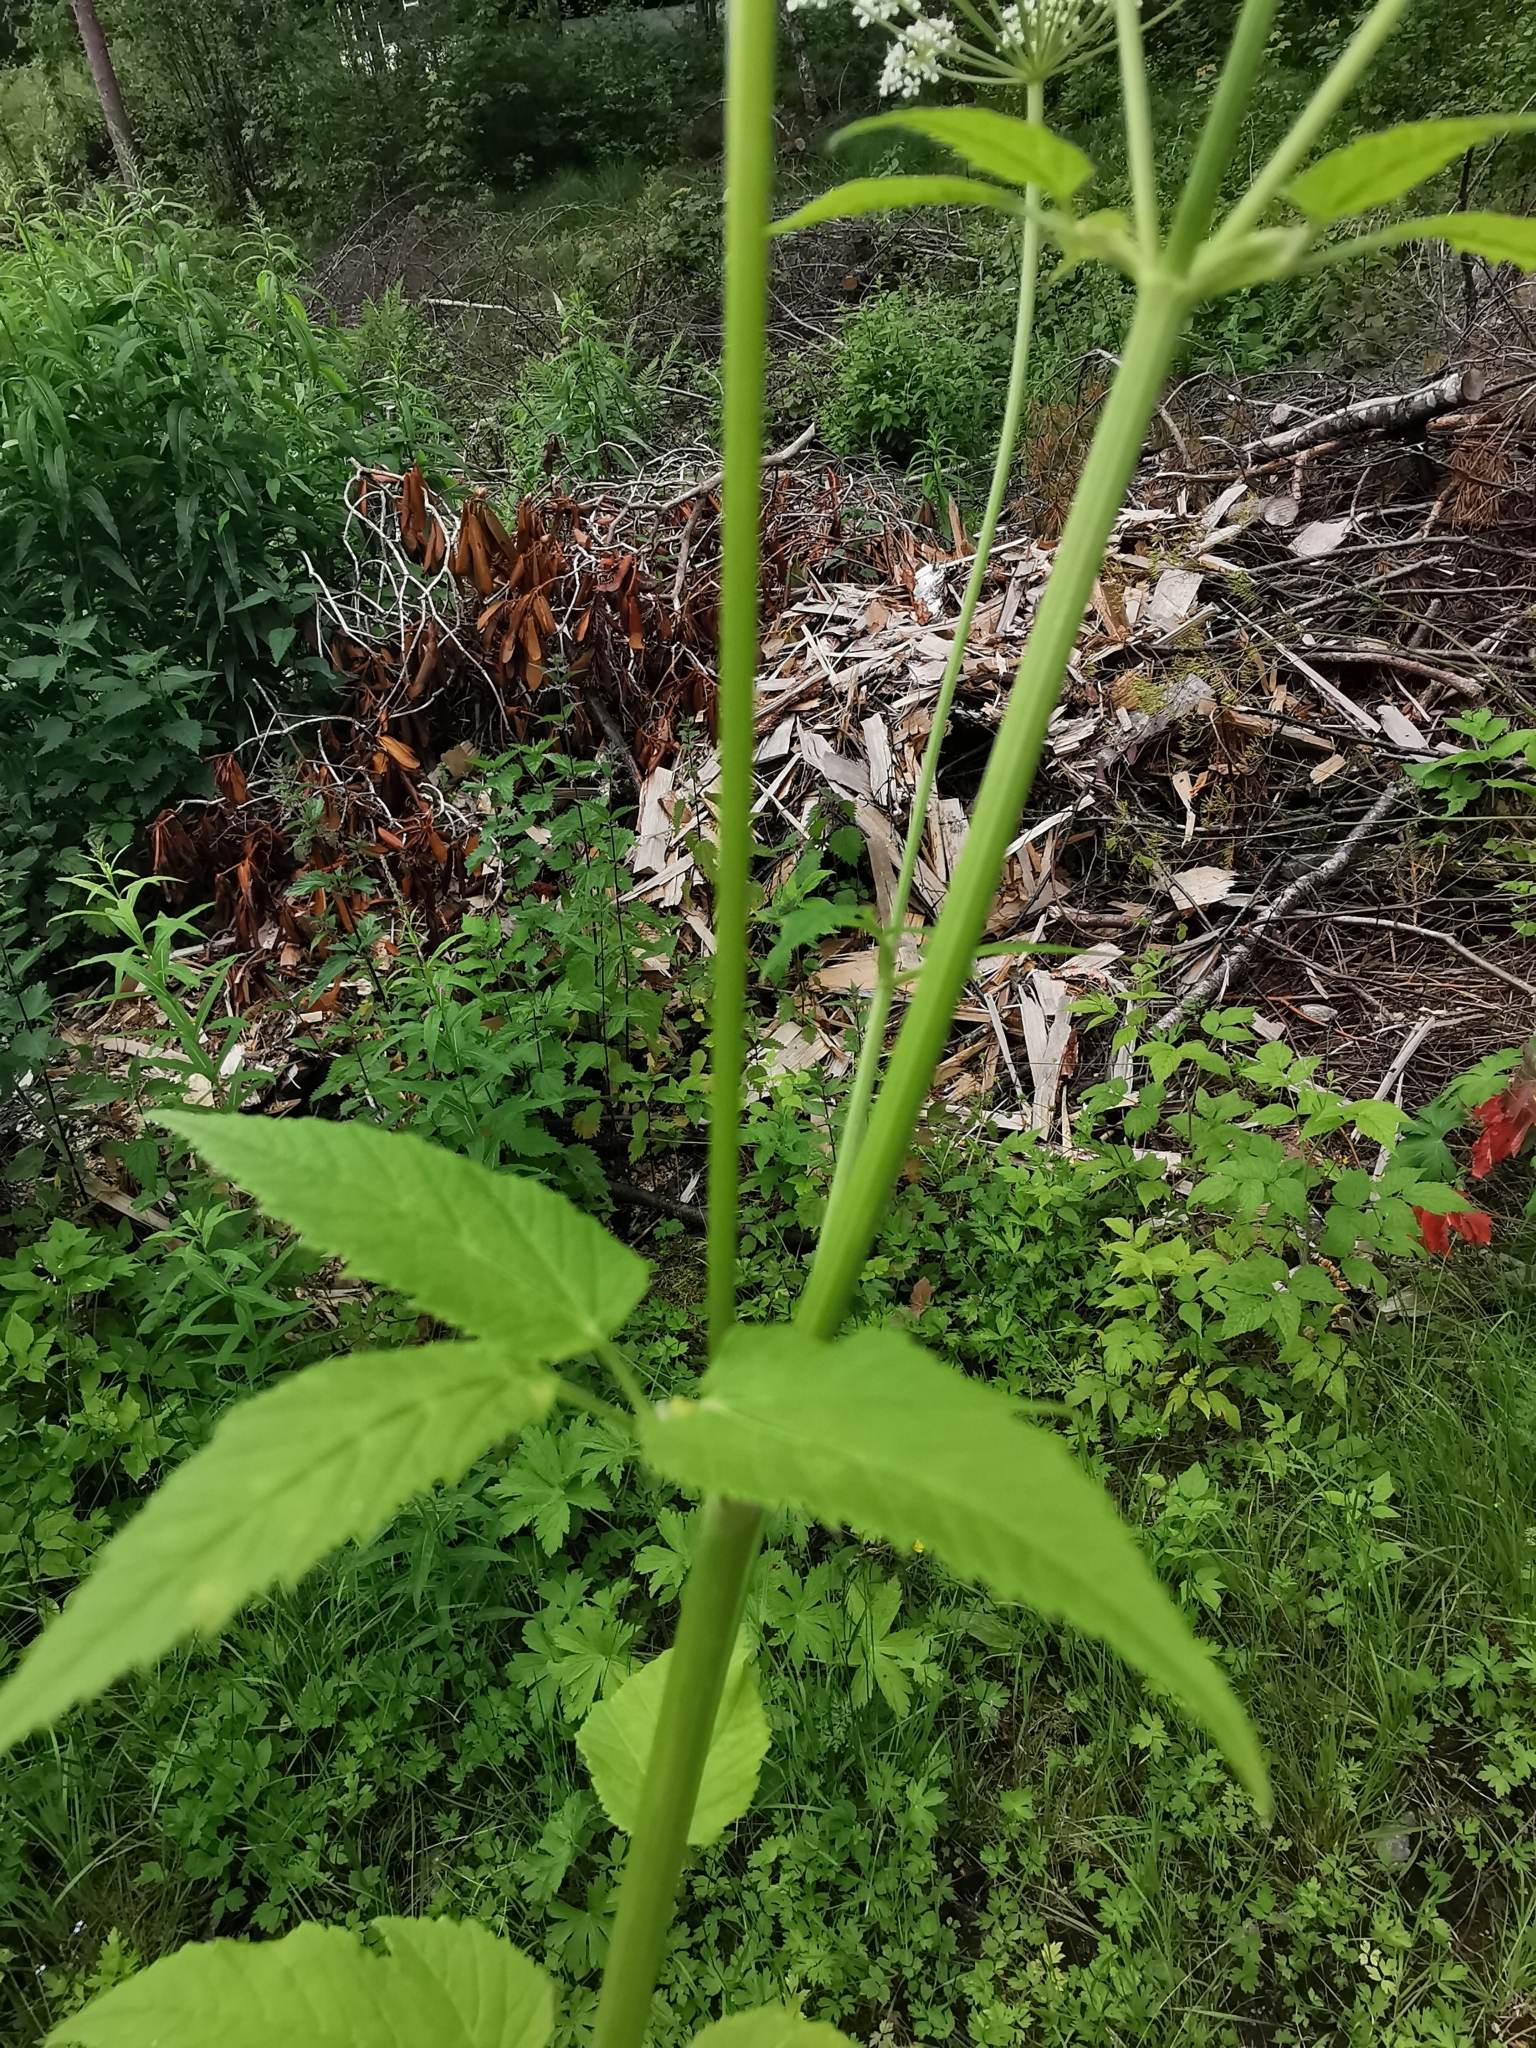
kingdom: Plantae
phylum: Tracheophyta
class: Magnoliopsida
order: Apiales
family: Apiaceae
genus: Aegopodium
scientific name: Aegopodium podagraria
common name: Ground-elder
